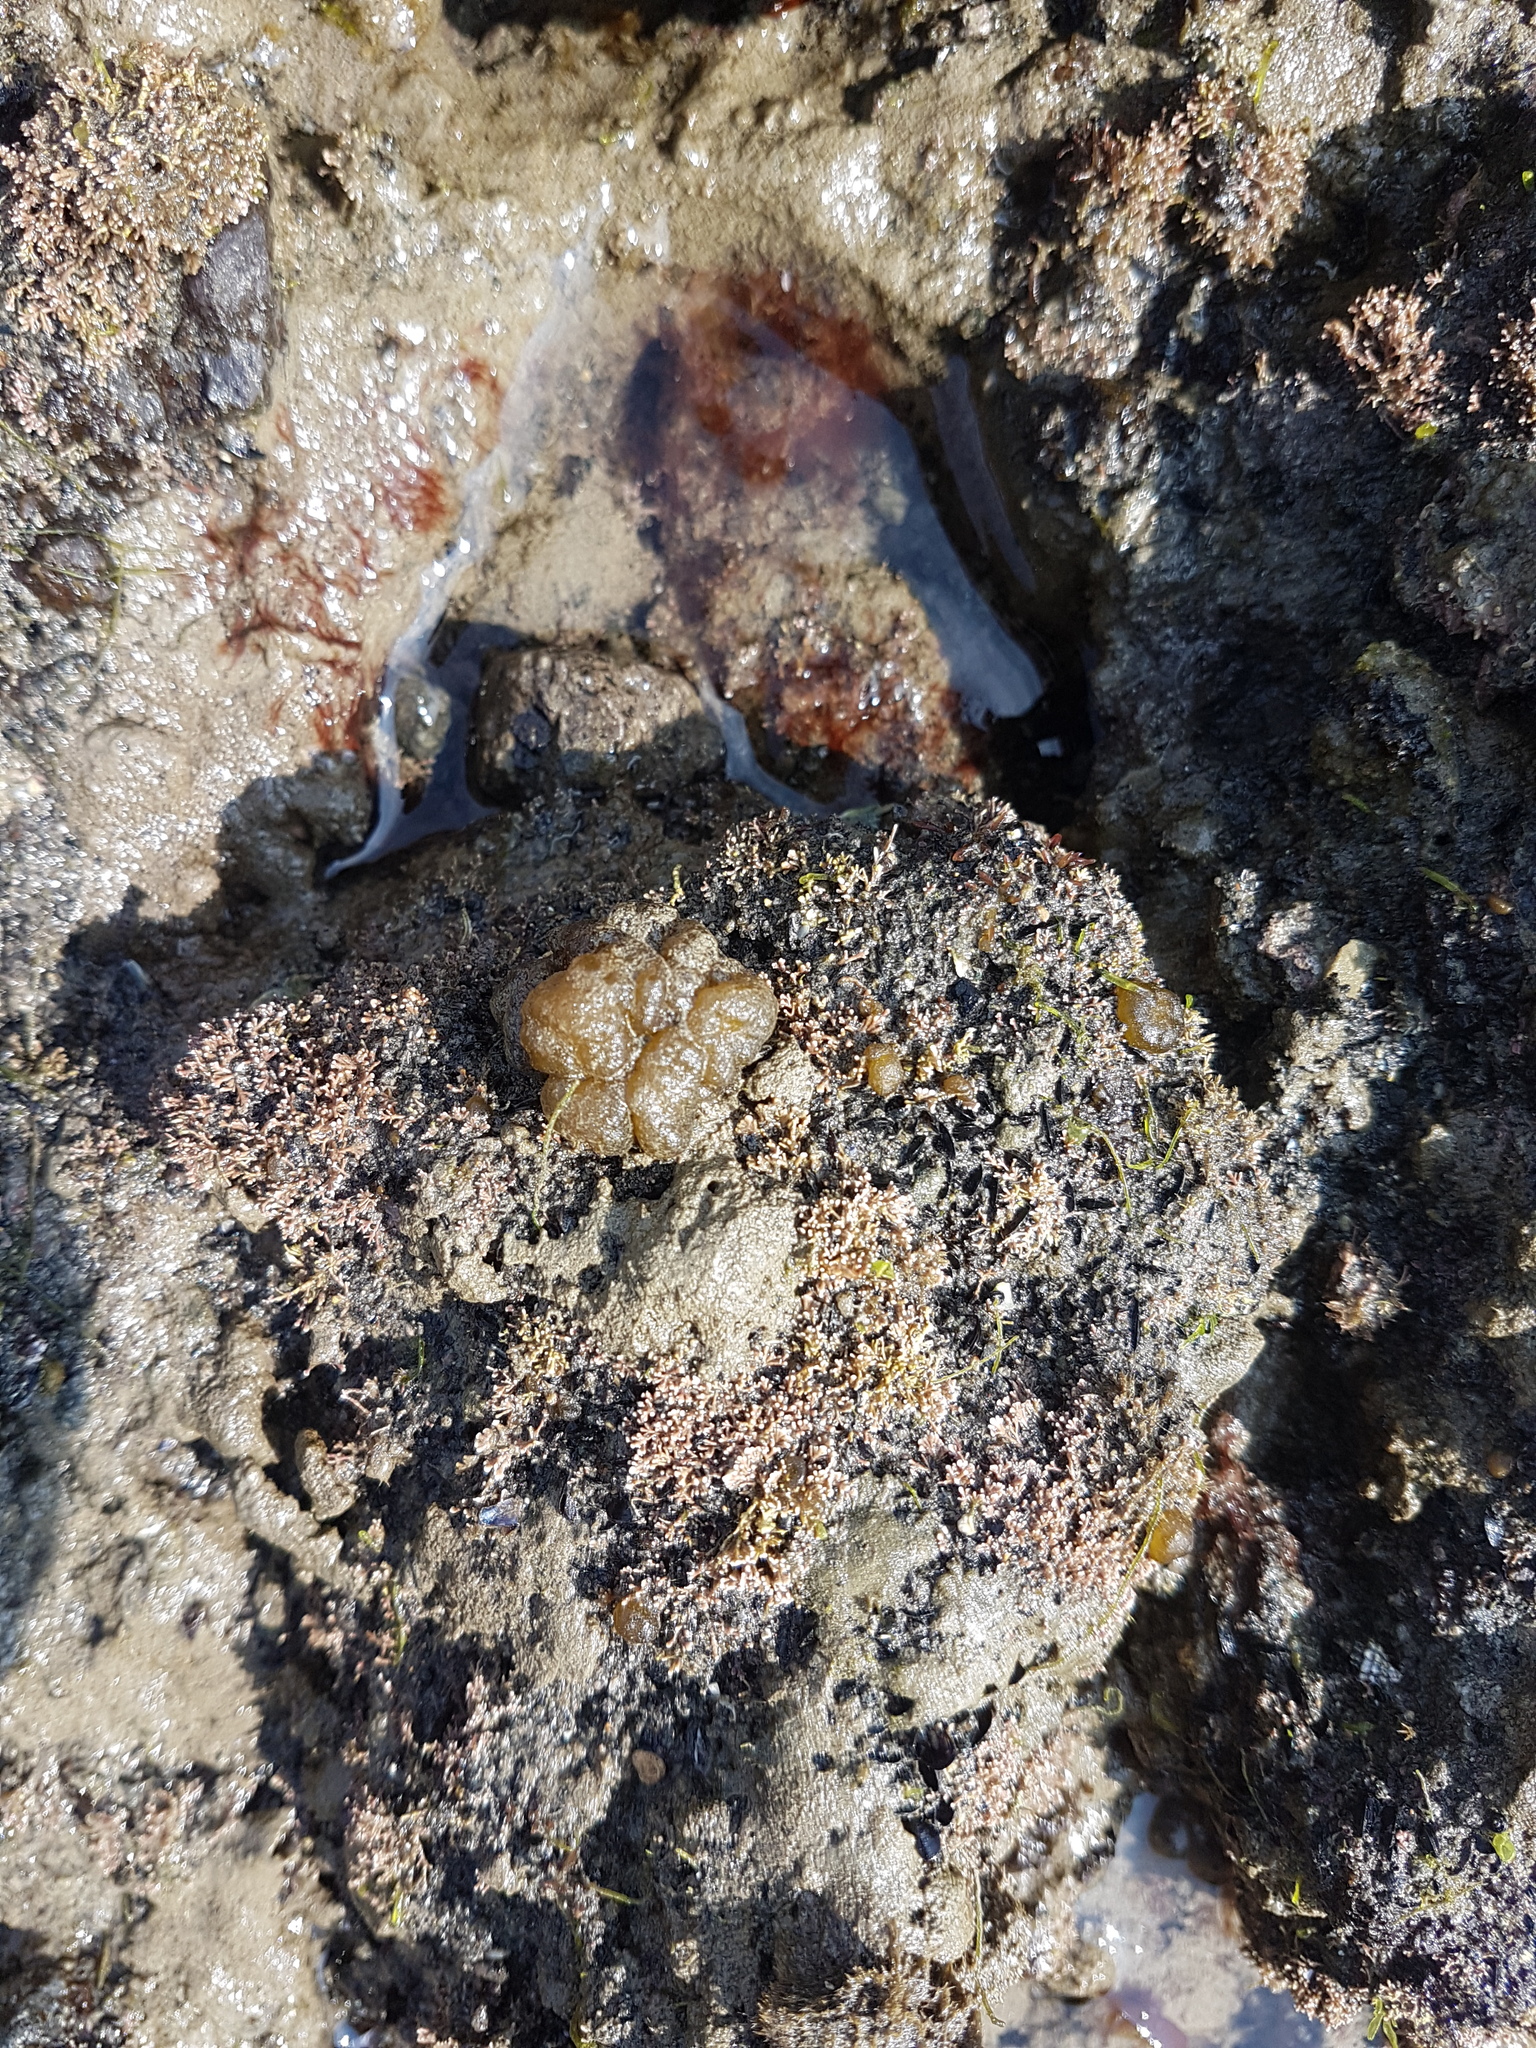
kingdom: Chromista
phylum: Ochrophyta
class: Phaeophyceae
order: Ectocarpales
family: Chordariaceae
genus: Leathesia
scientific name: Leathesia marina
